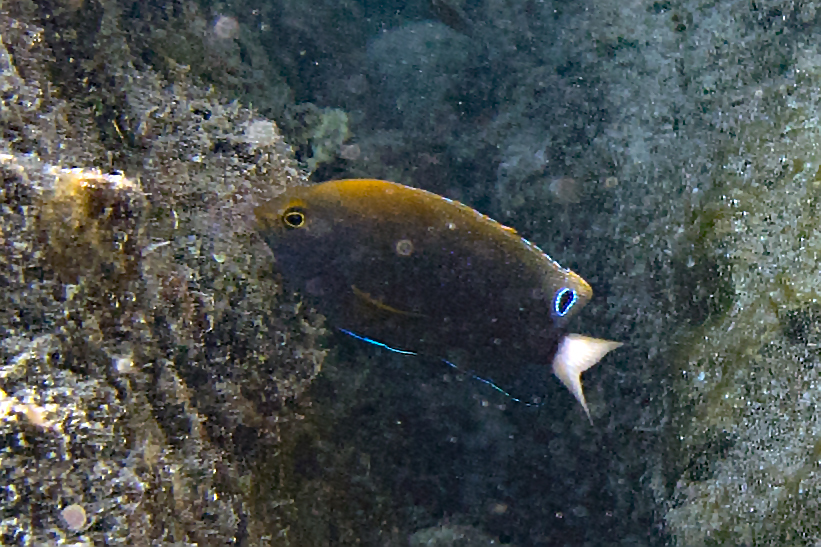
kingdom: Animalia
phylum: Chordata
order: Perciformes
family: Pomacentridae
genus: Pomacentrus
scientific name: Pomacentrus chrysurus
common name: White-tail damsel
